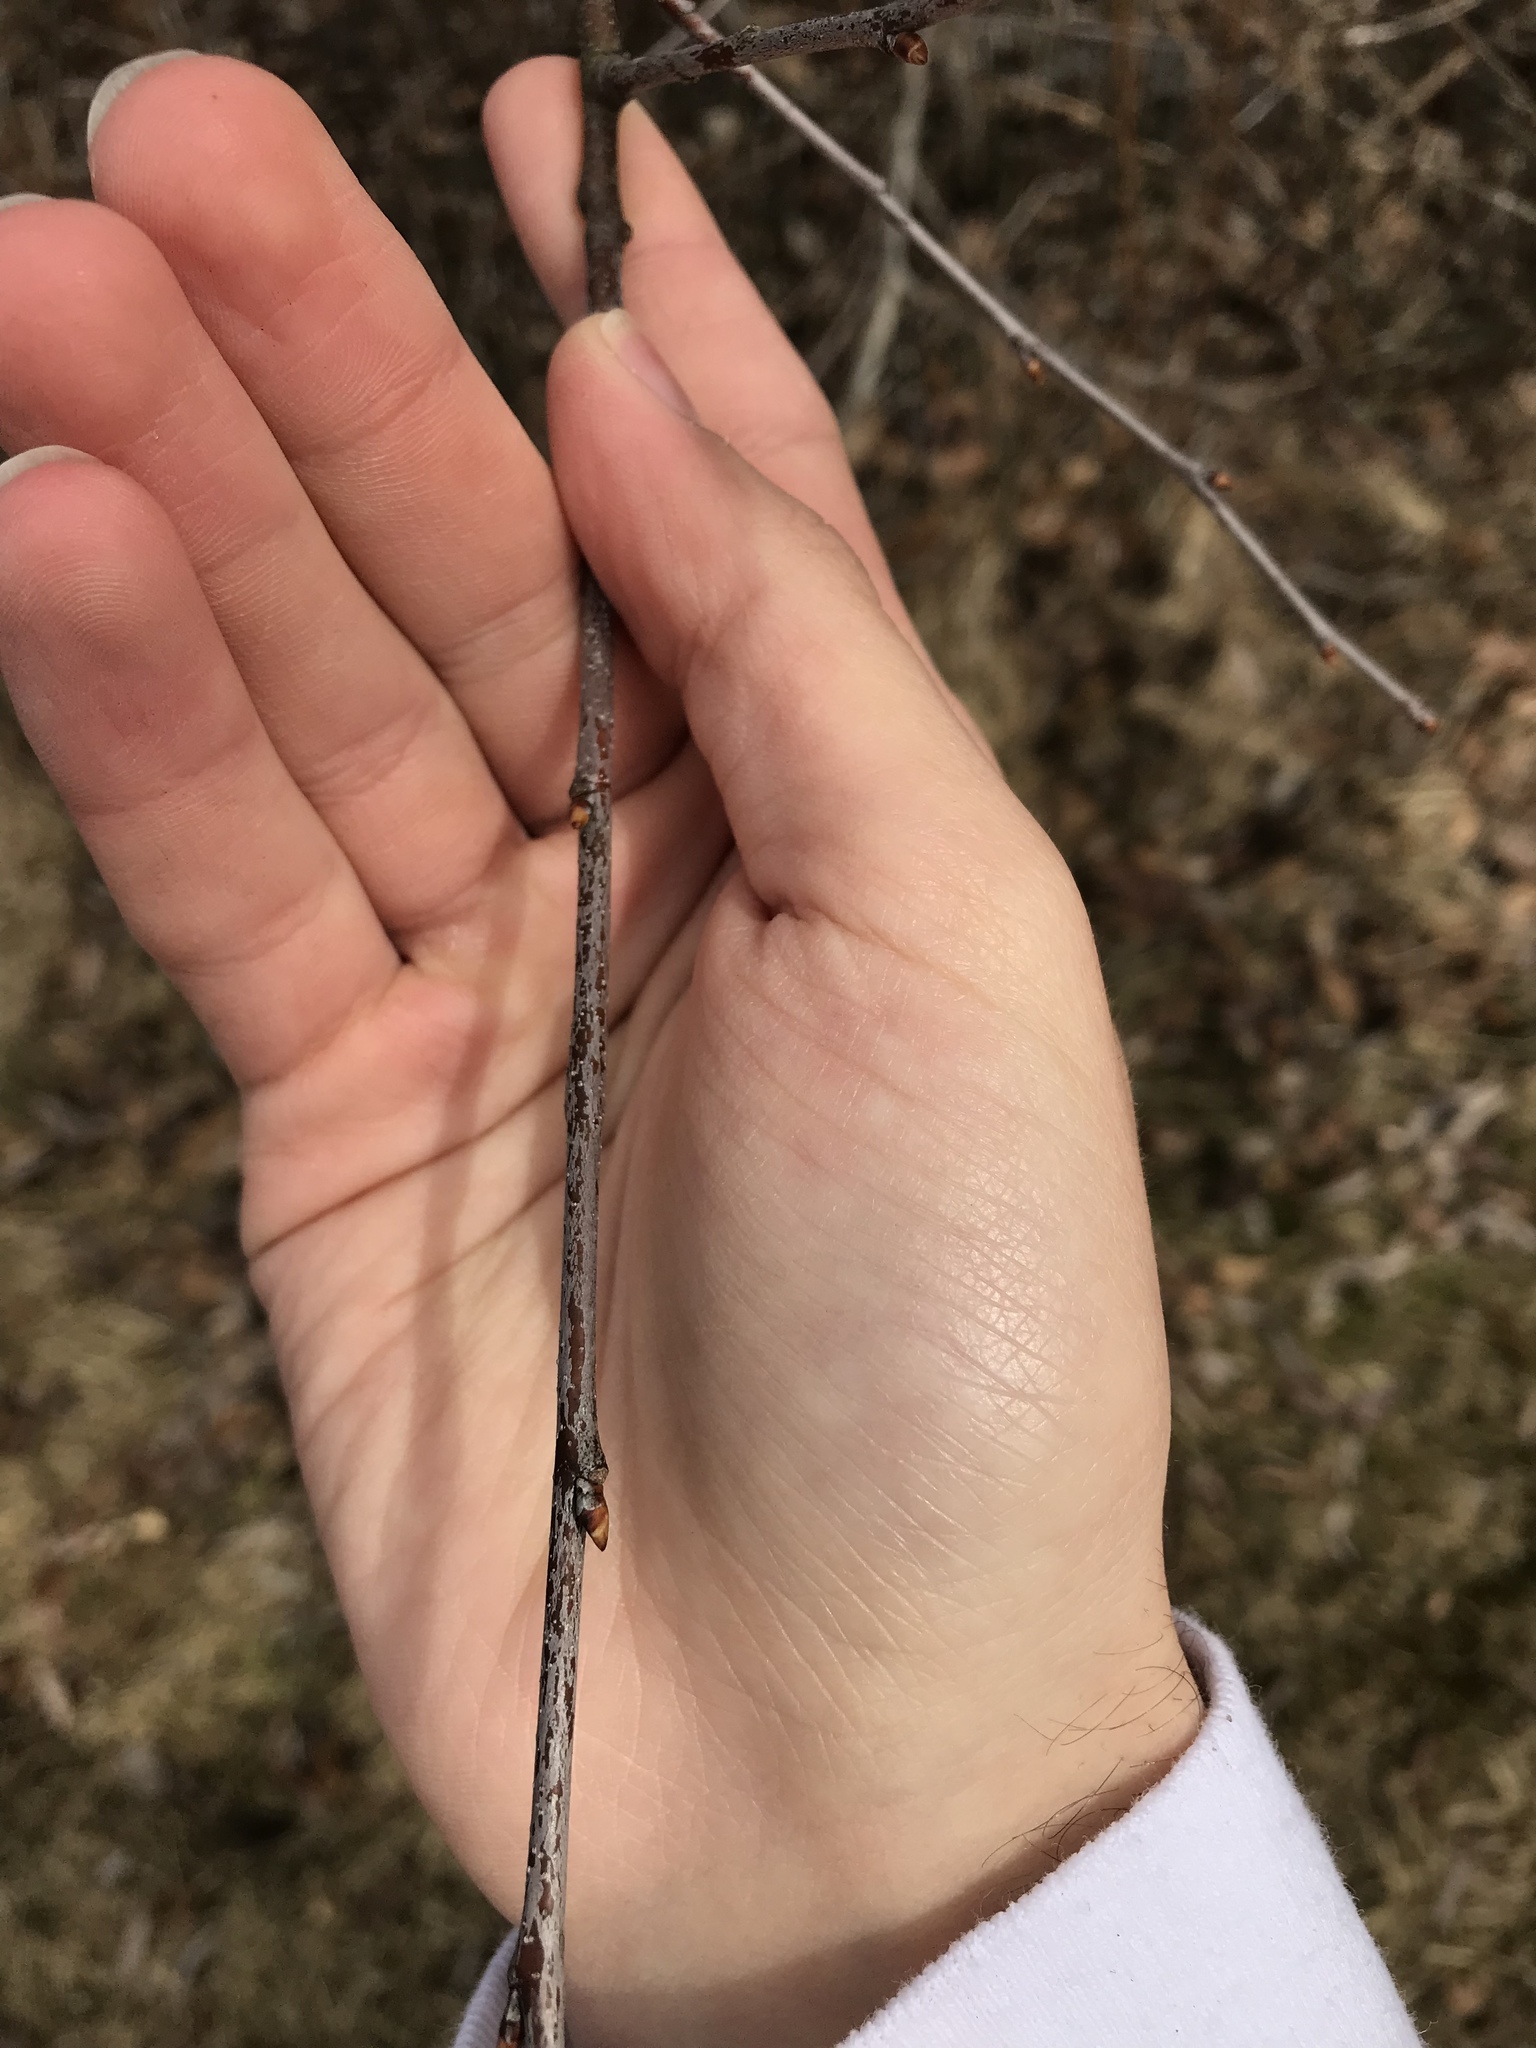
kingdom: Plantae
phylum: Tracheophyta
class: Magnoliopsida
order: Rosales
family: Rosaceae
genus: Prunus
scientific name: Prunus serotina
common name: Black cherry
